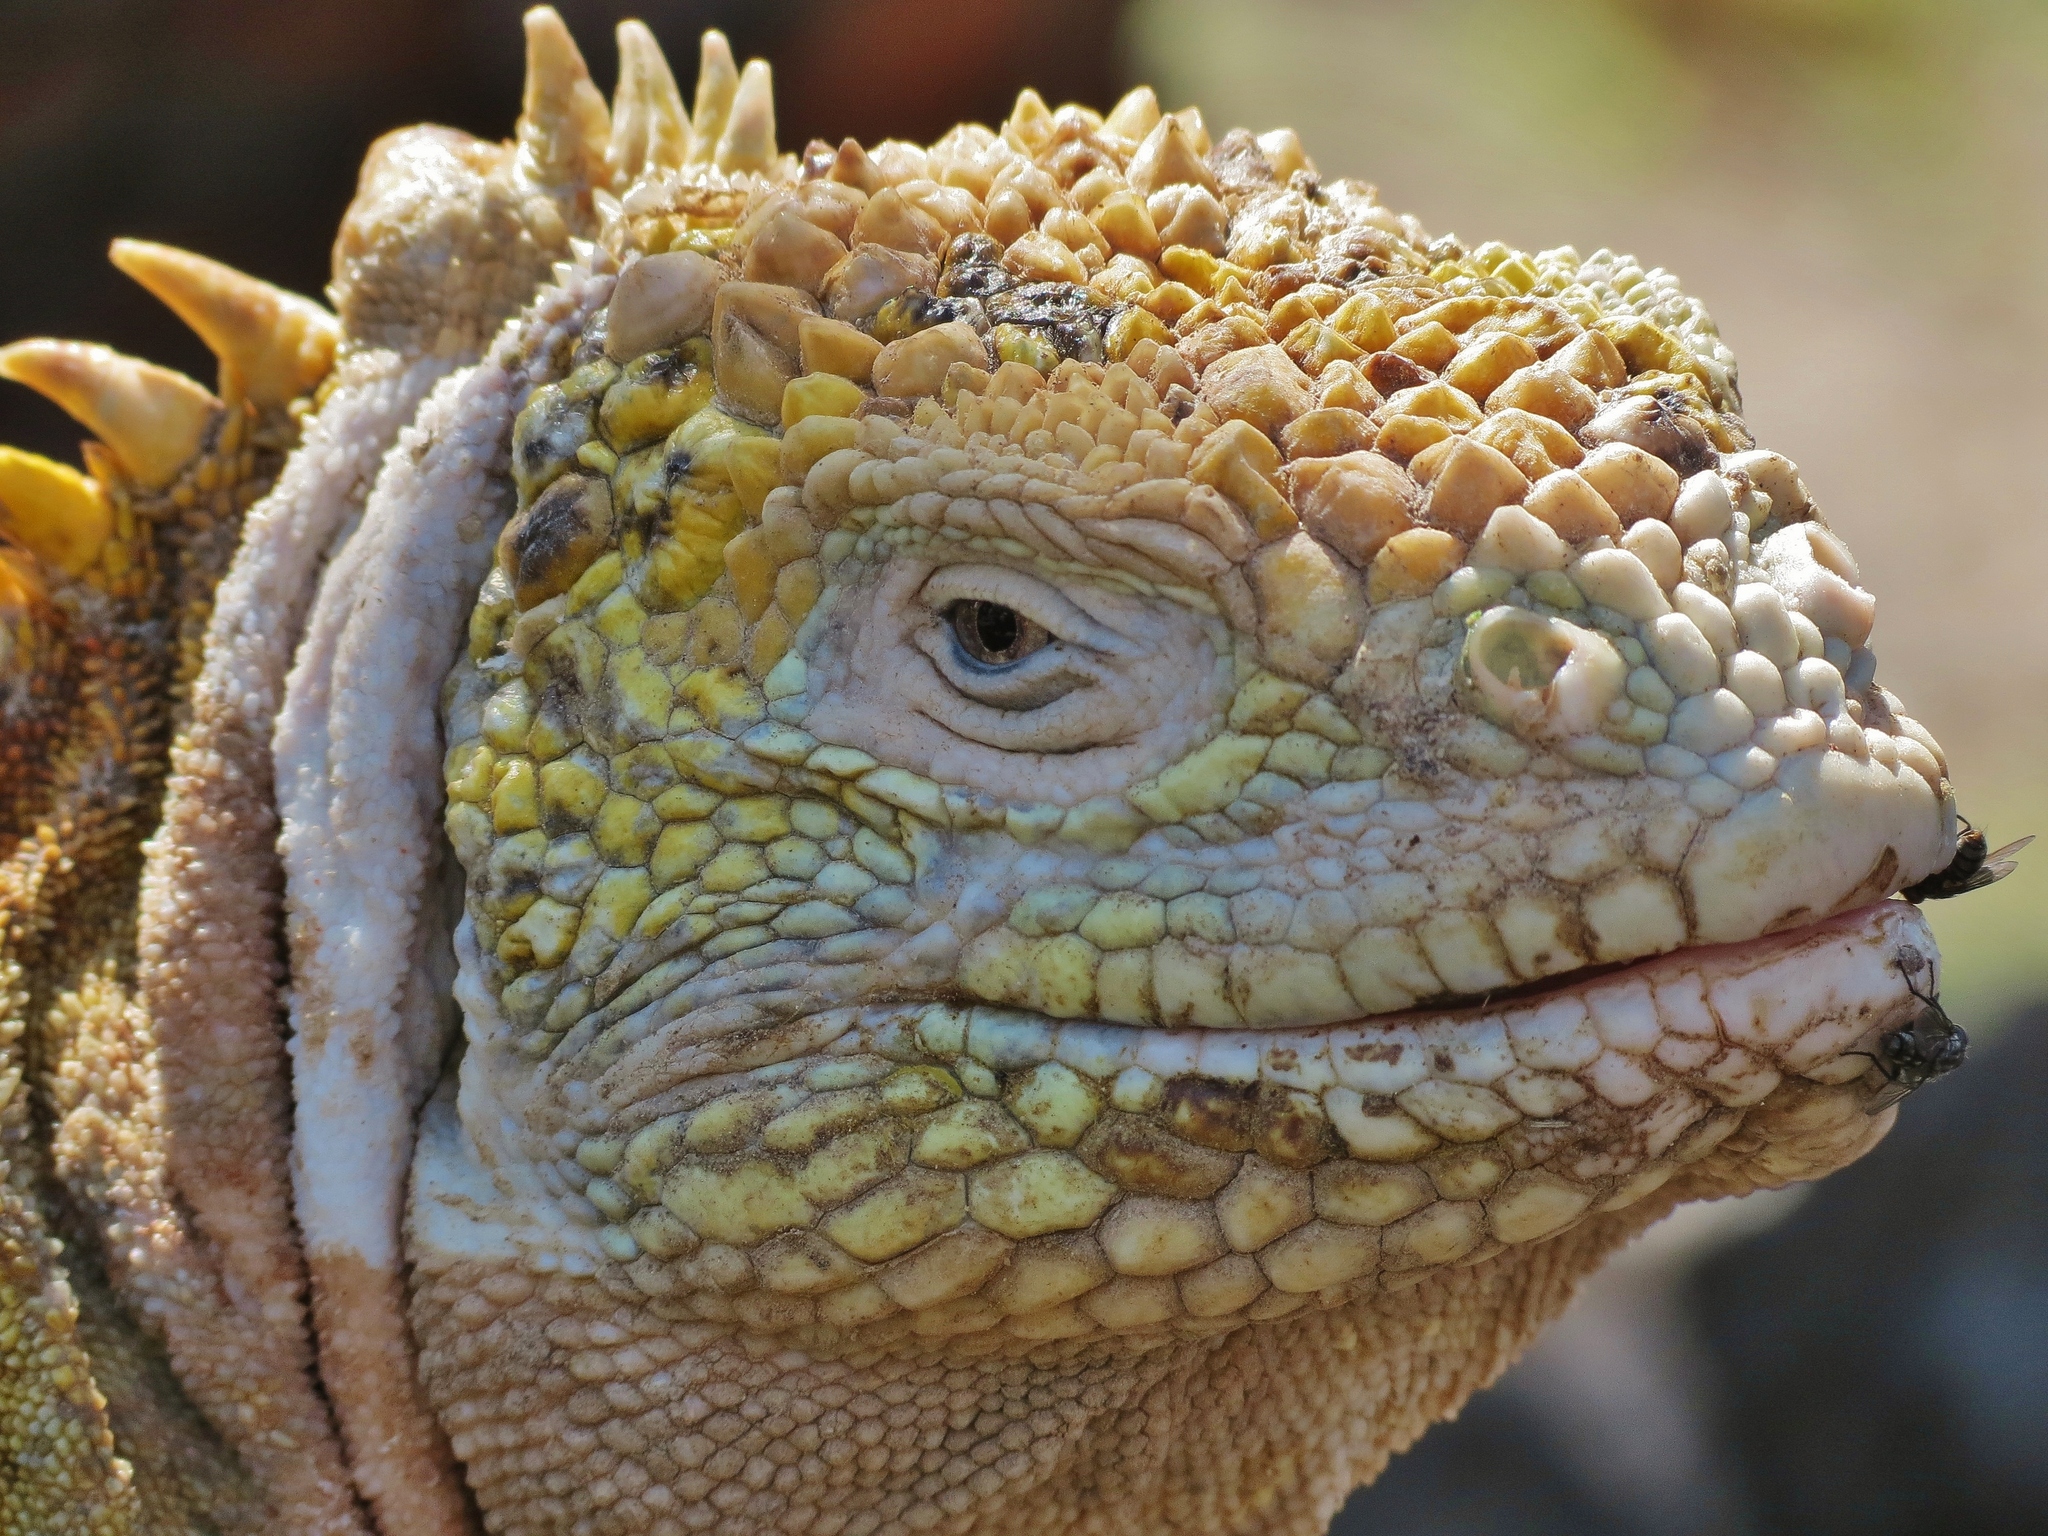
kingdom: Animalia
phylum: Chordata
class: Squamata
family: Iguanidae
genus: Conolophus
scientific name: Conolophus subcristatus
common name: Galapagos land iguana
